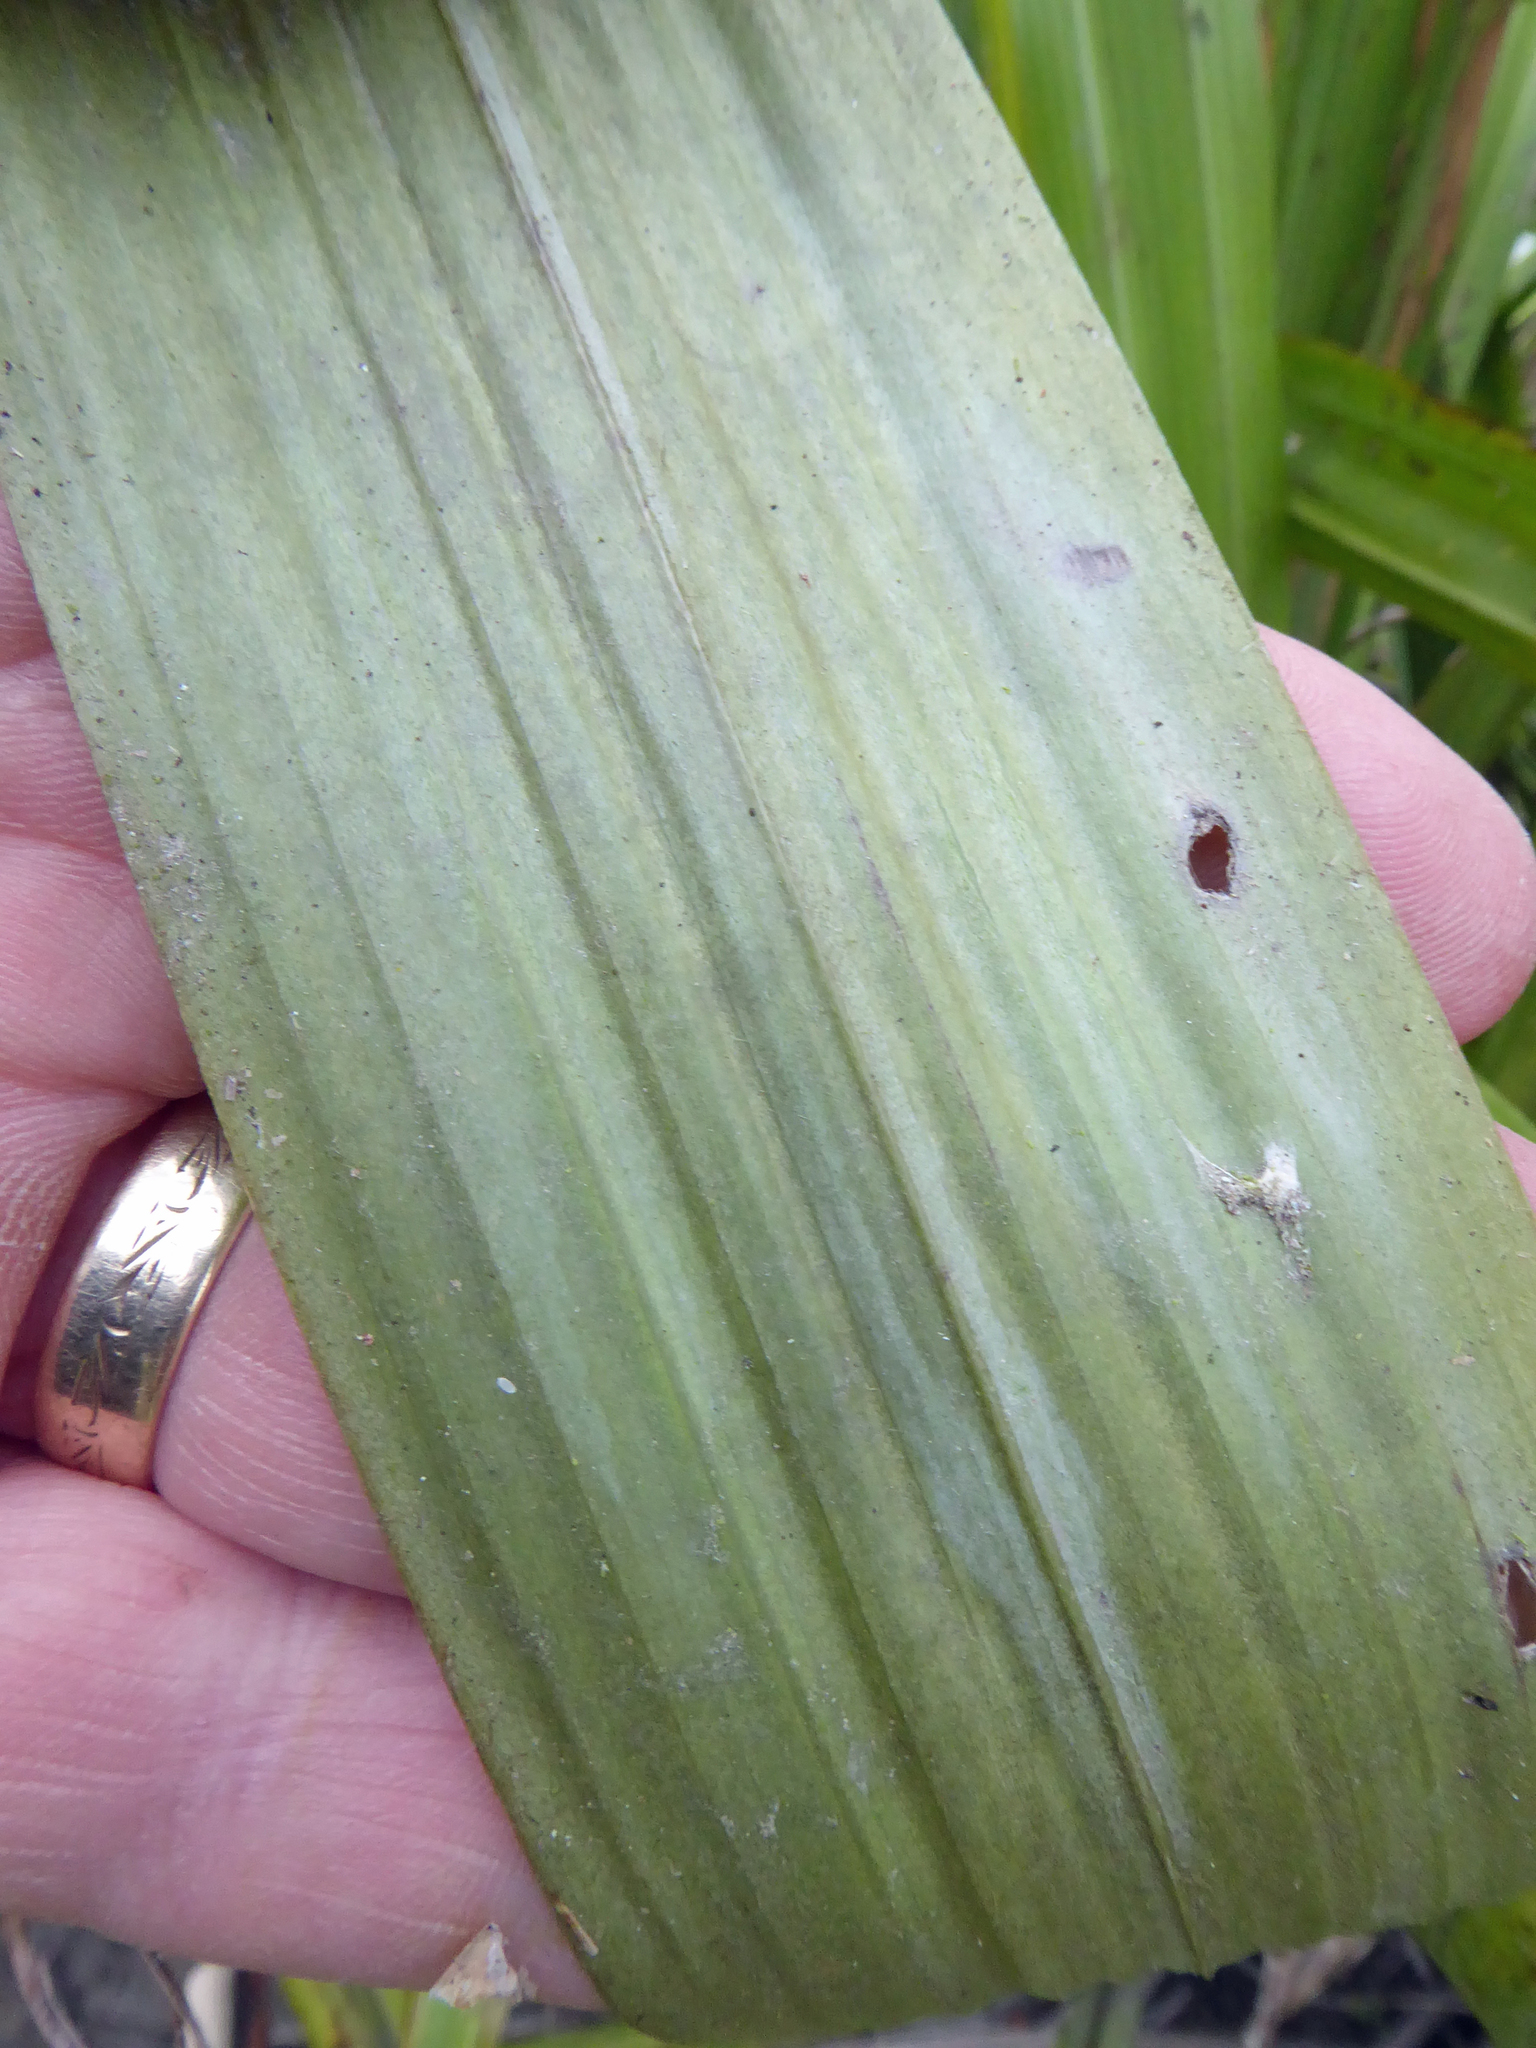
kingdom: Plantae
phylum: Tracheophyta
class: Liliopsida
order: Asparagales
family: Asteliaceae
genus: Astelia
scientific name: Astelia grandis
